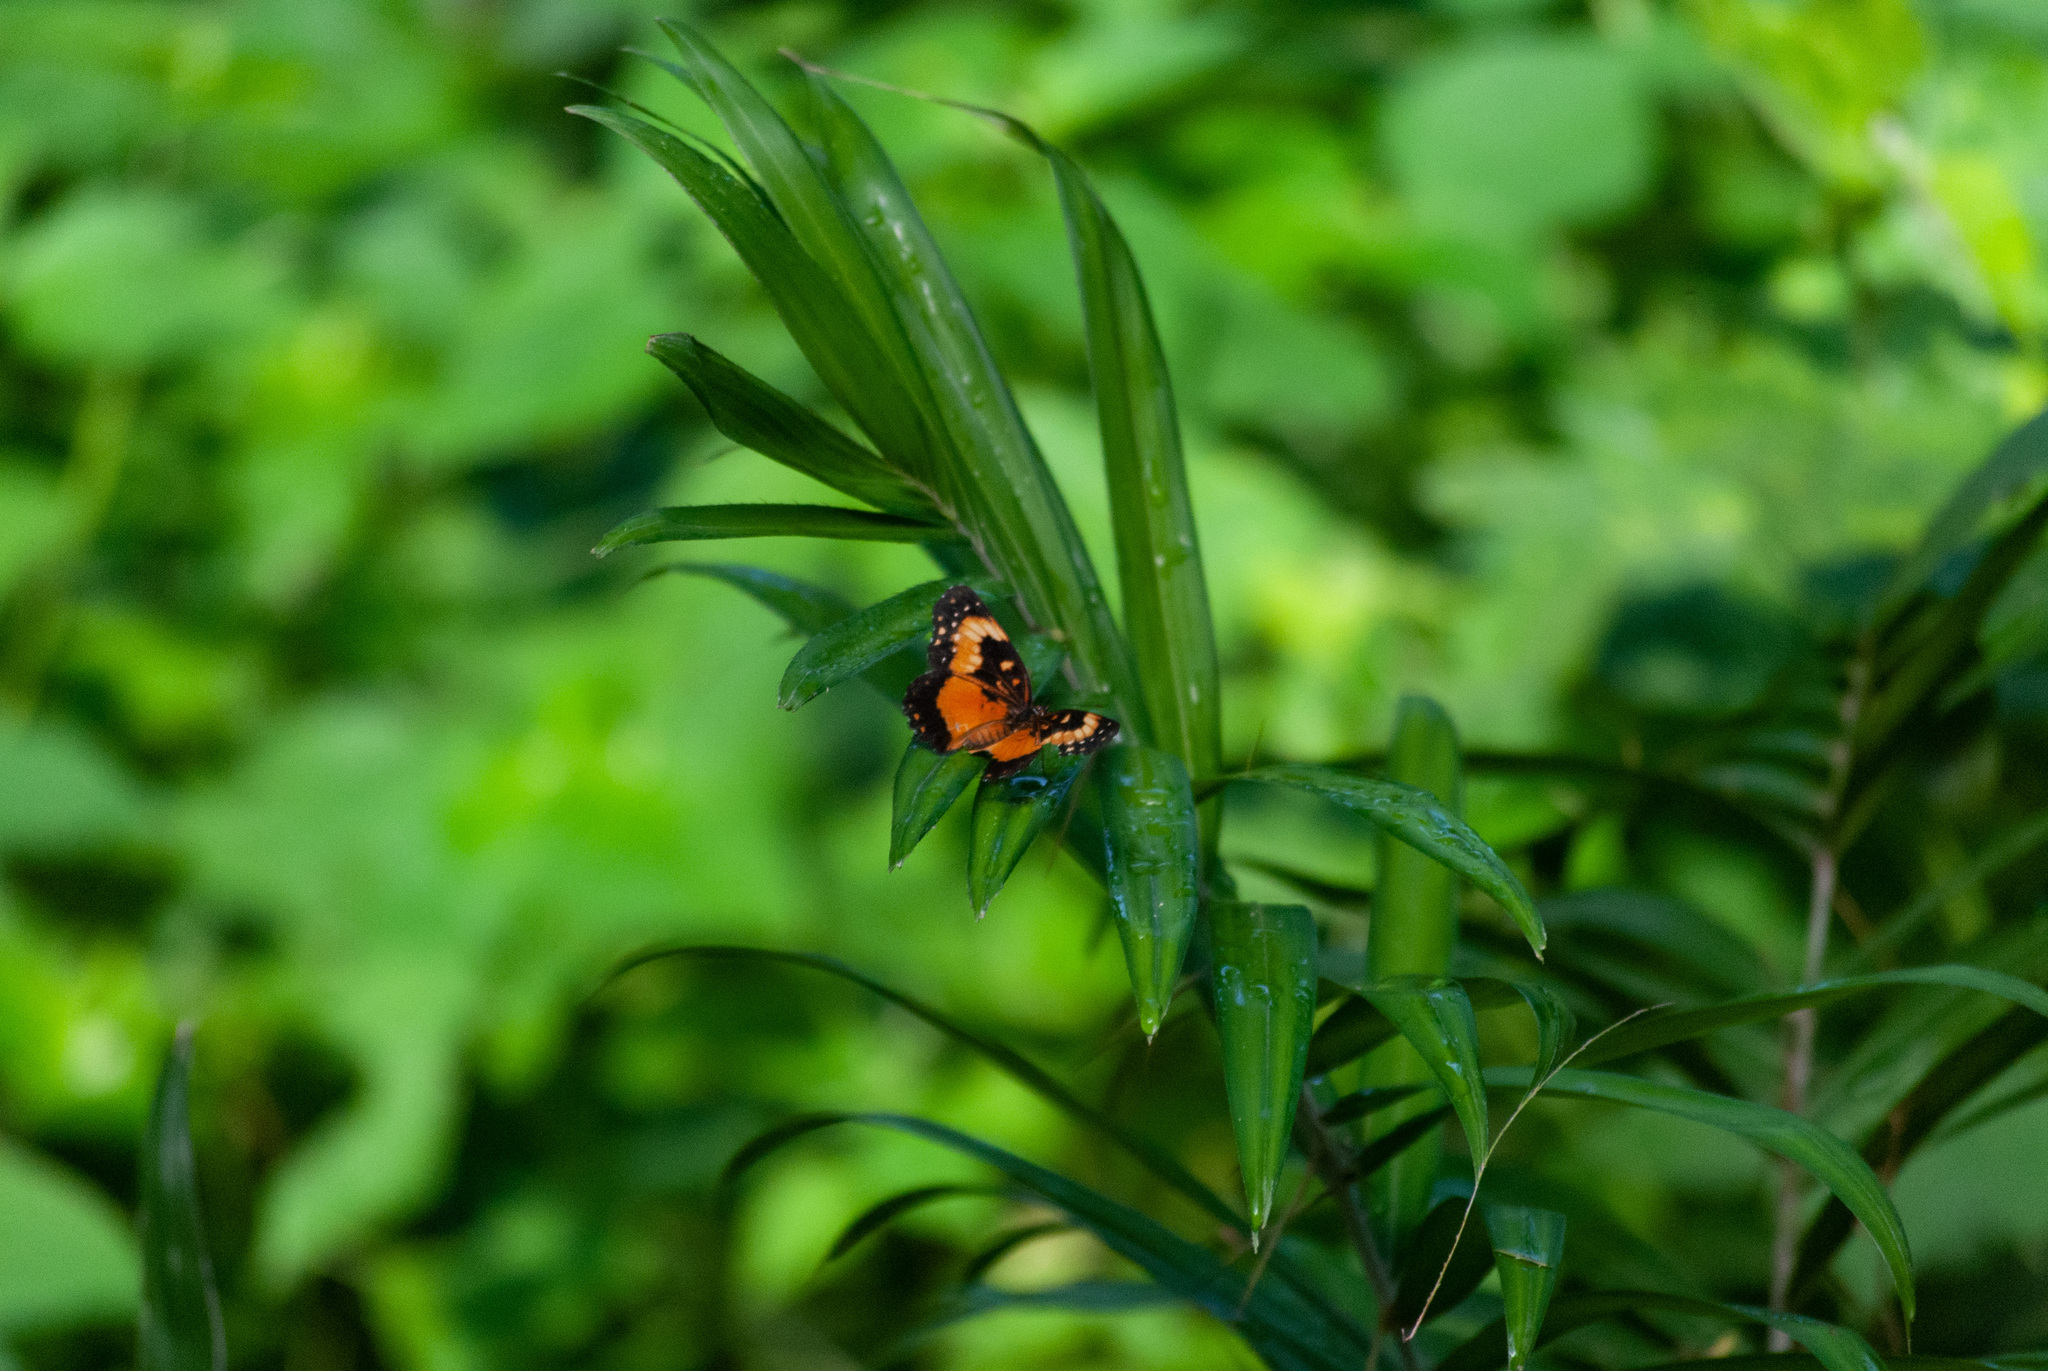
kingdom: Animalia
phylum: Arthropoda
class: Insecta
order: Lepidoptera
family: Nymphalidae
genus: Chlosyne
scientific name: Chlosyne lacinia
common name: Bordered patch
